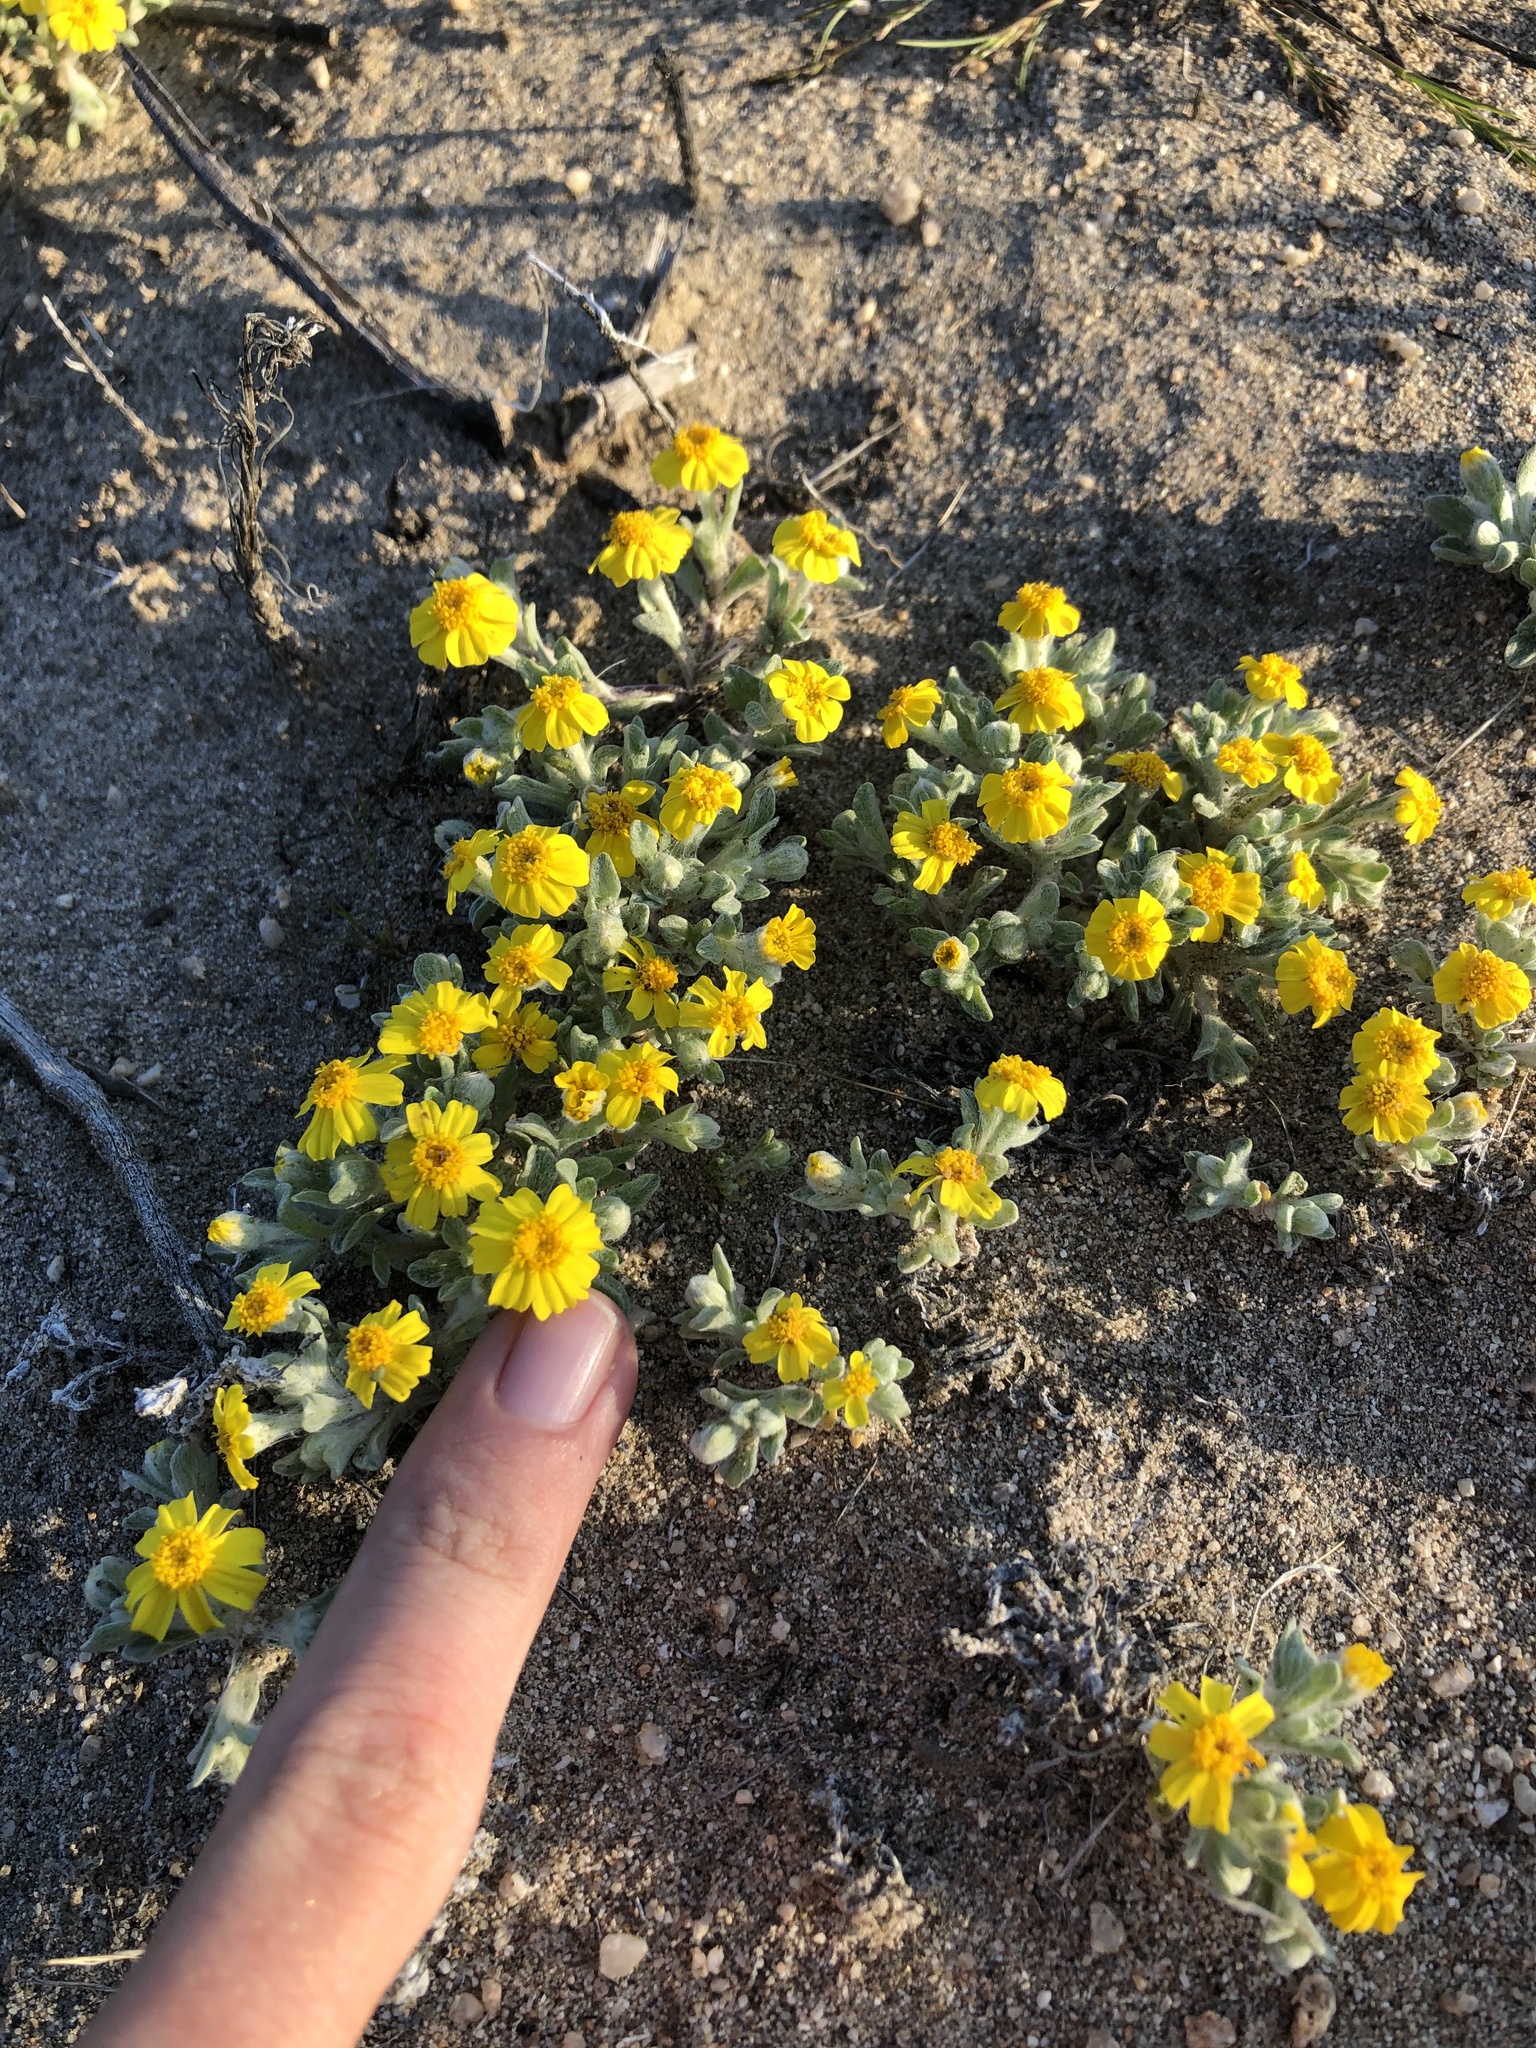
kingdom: Plantae
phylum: Tracheophyta
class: Magnoliopsida
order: Asterales
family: Asteraceae
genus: Eriophyllum
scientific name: Eriophyllum wallacei
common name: Wallace's woolly daisy
